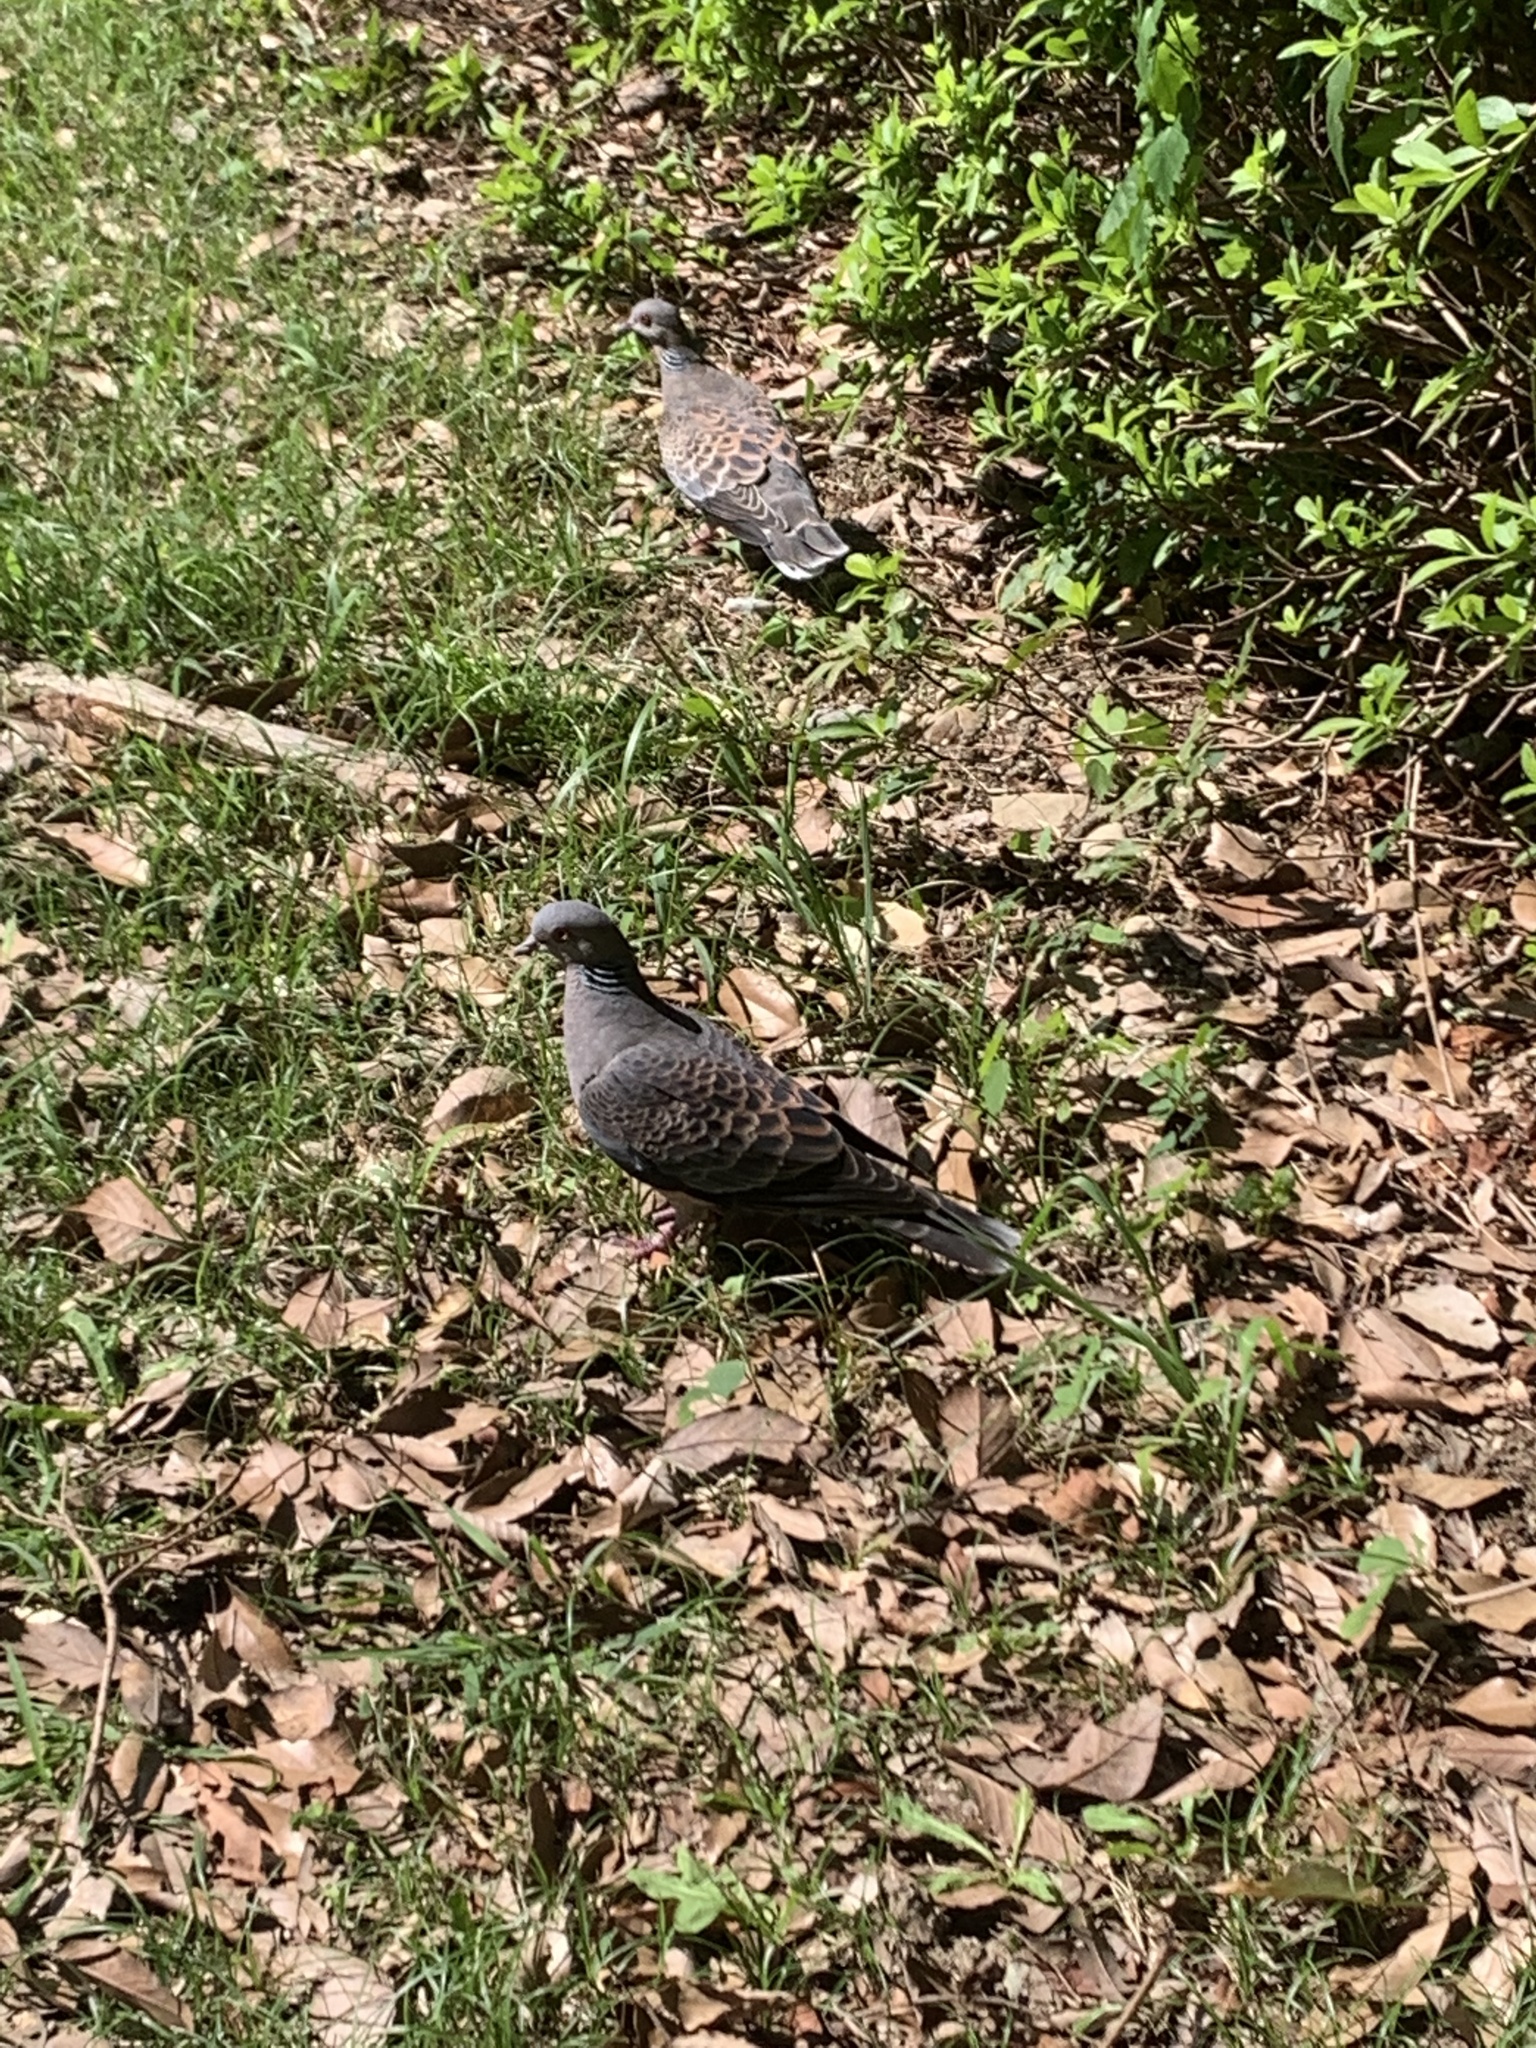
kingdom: Animalia
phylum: Chordata
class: Aves
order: Columbiformes
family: Columbidae
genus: Streptopelia
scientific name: Streptopelia orientalis
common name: Oriental turtle dove
